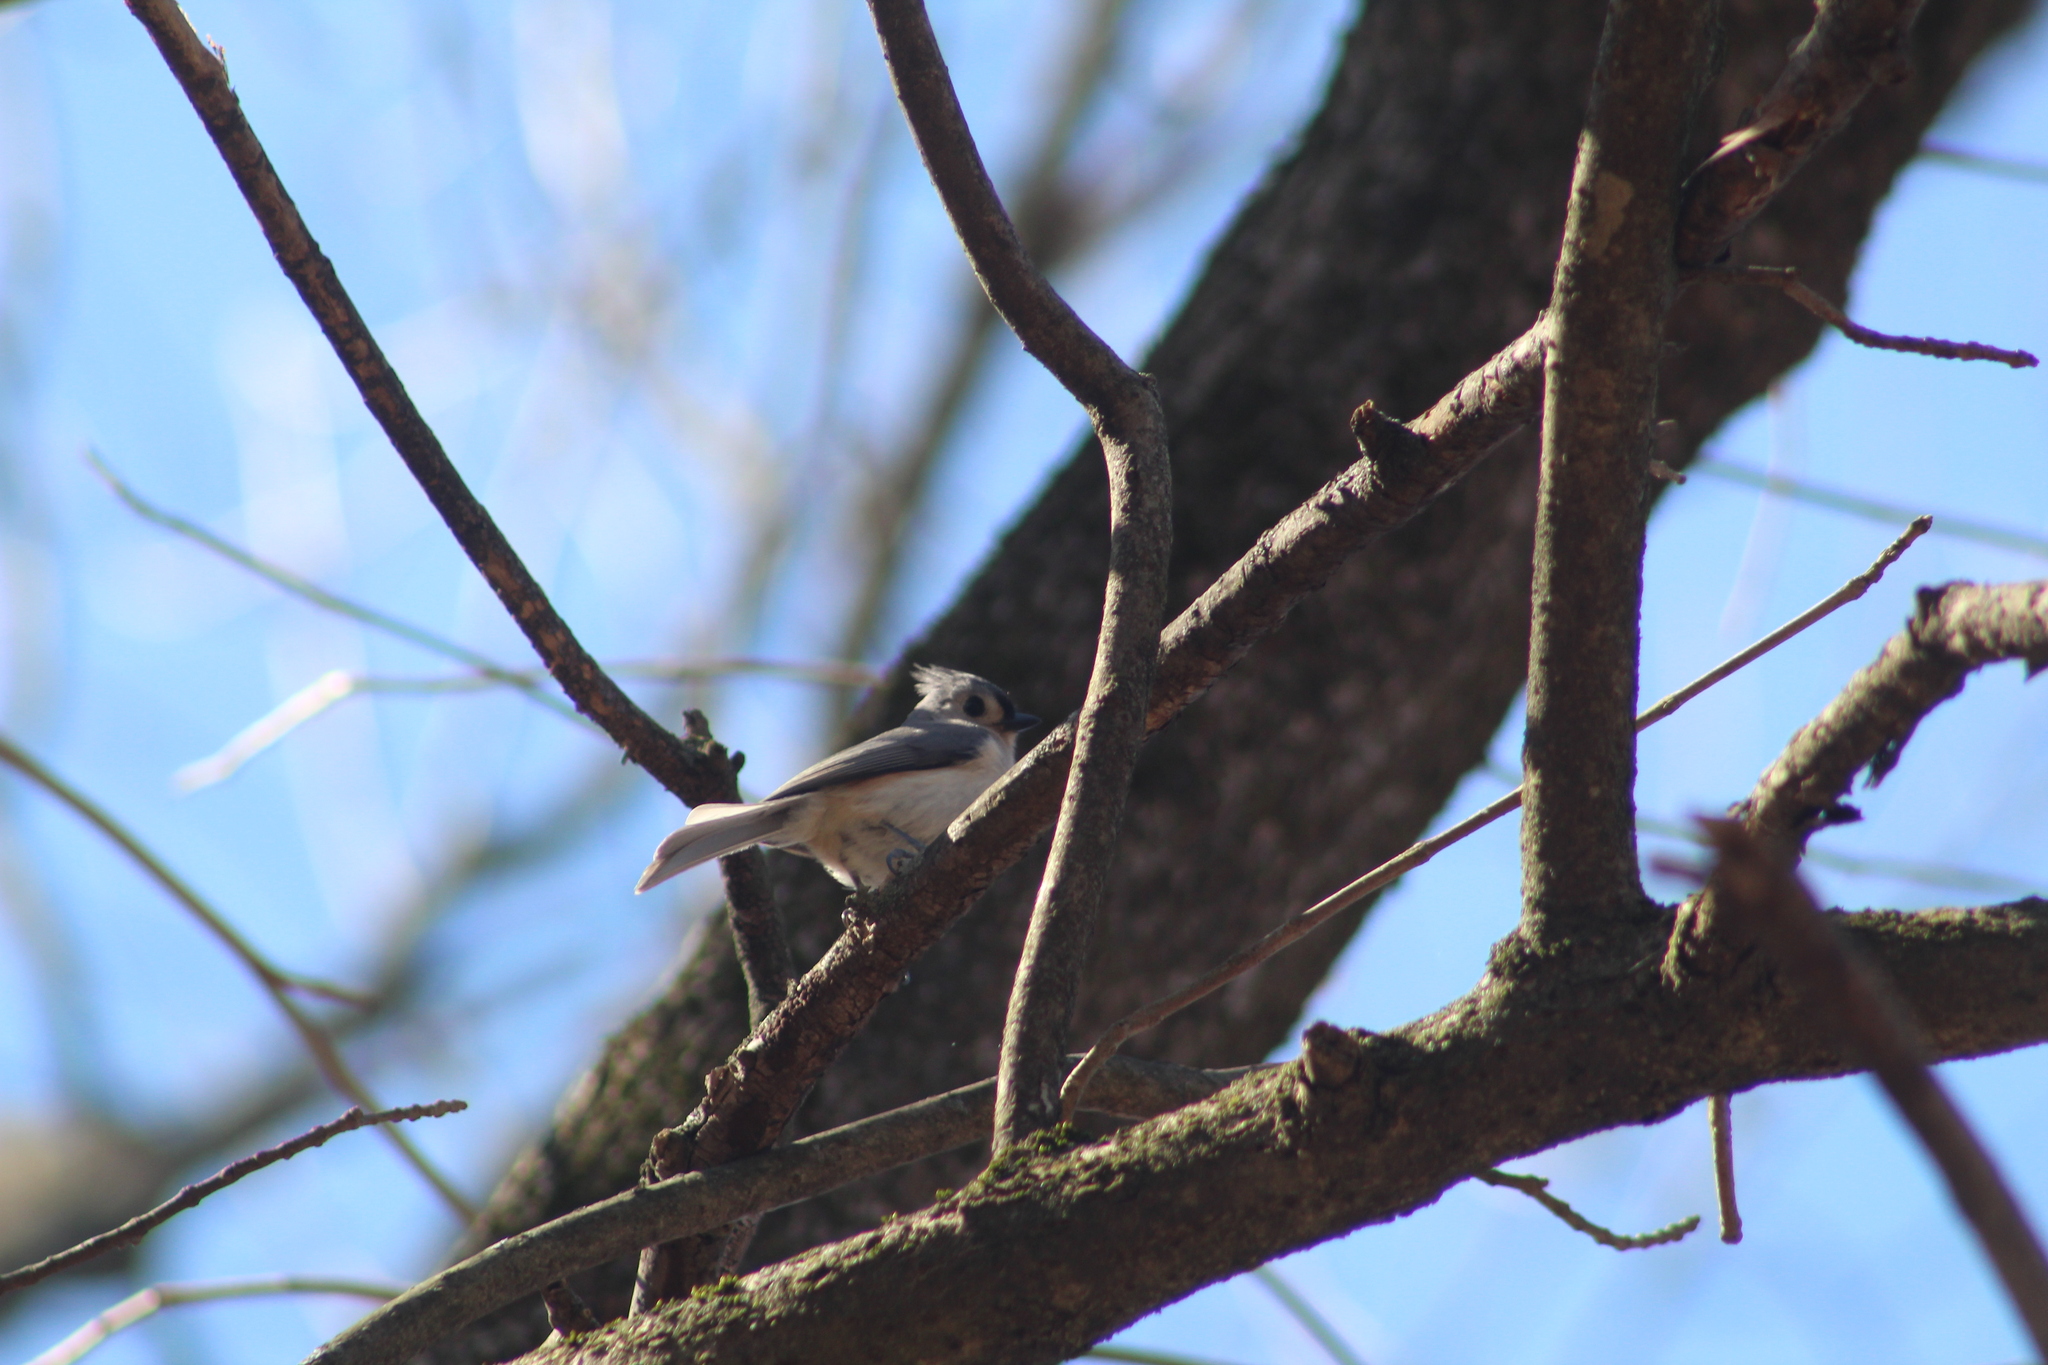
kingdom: Animalia
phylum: Chordata
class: Aves
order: Passeriformes
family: Paridae
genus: Baeolophus
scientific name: Baeolophus bicolor
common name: Tufted titmouse
